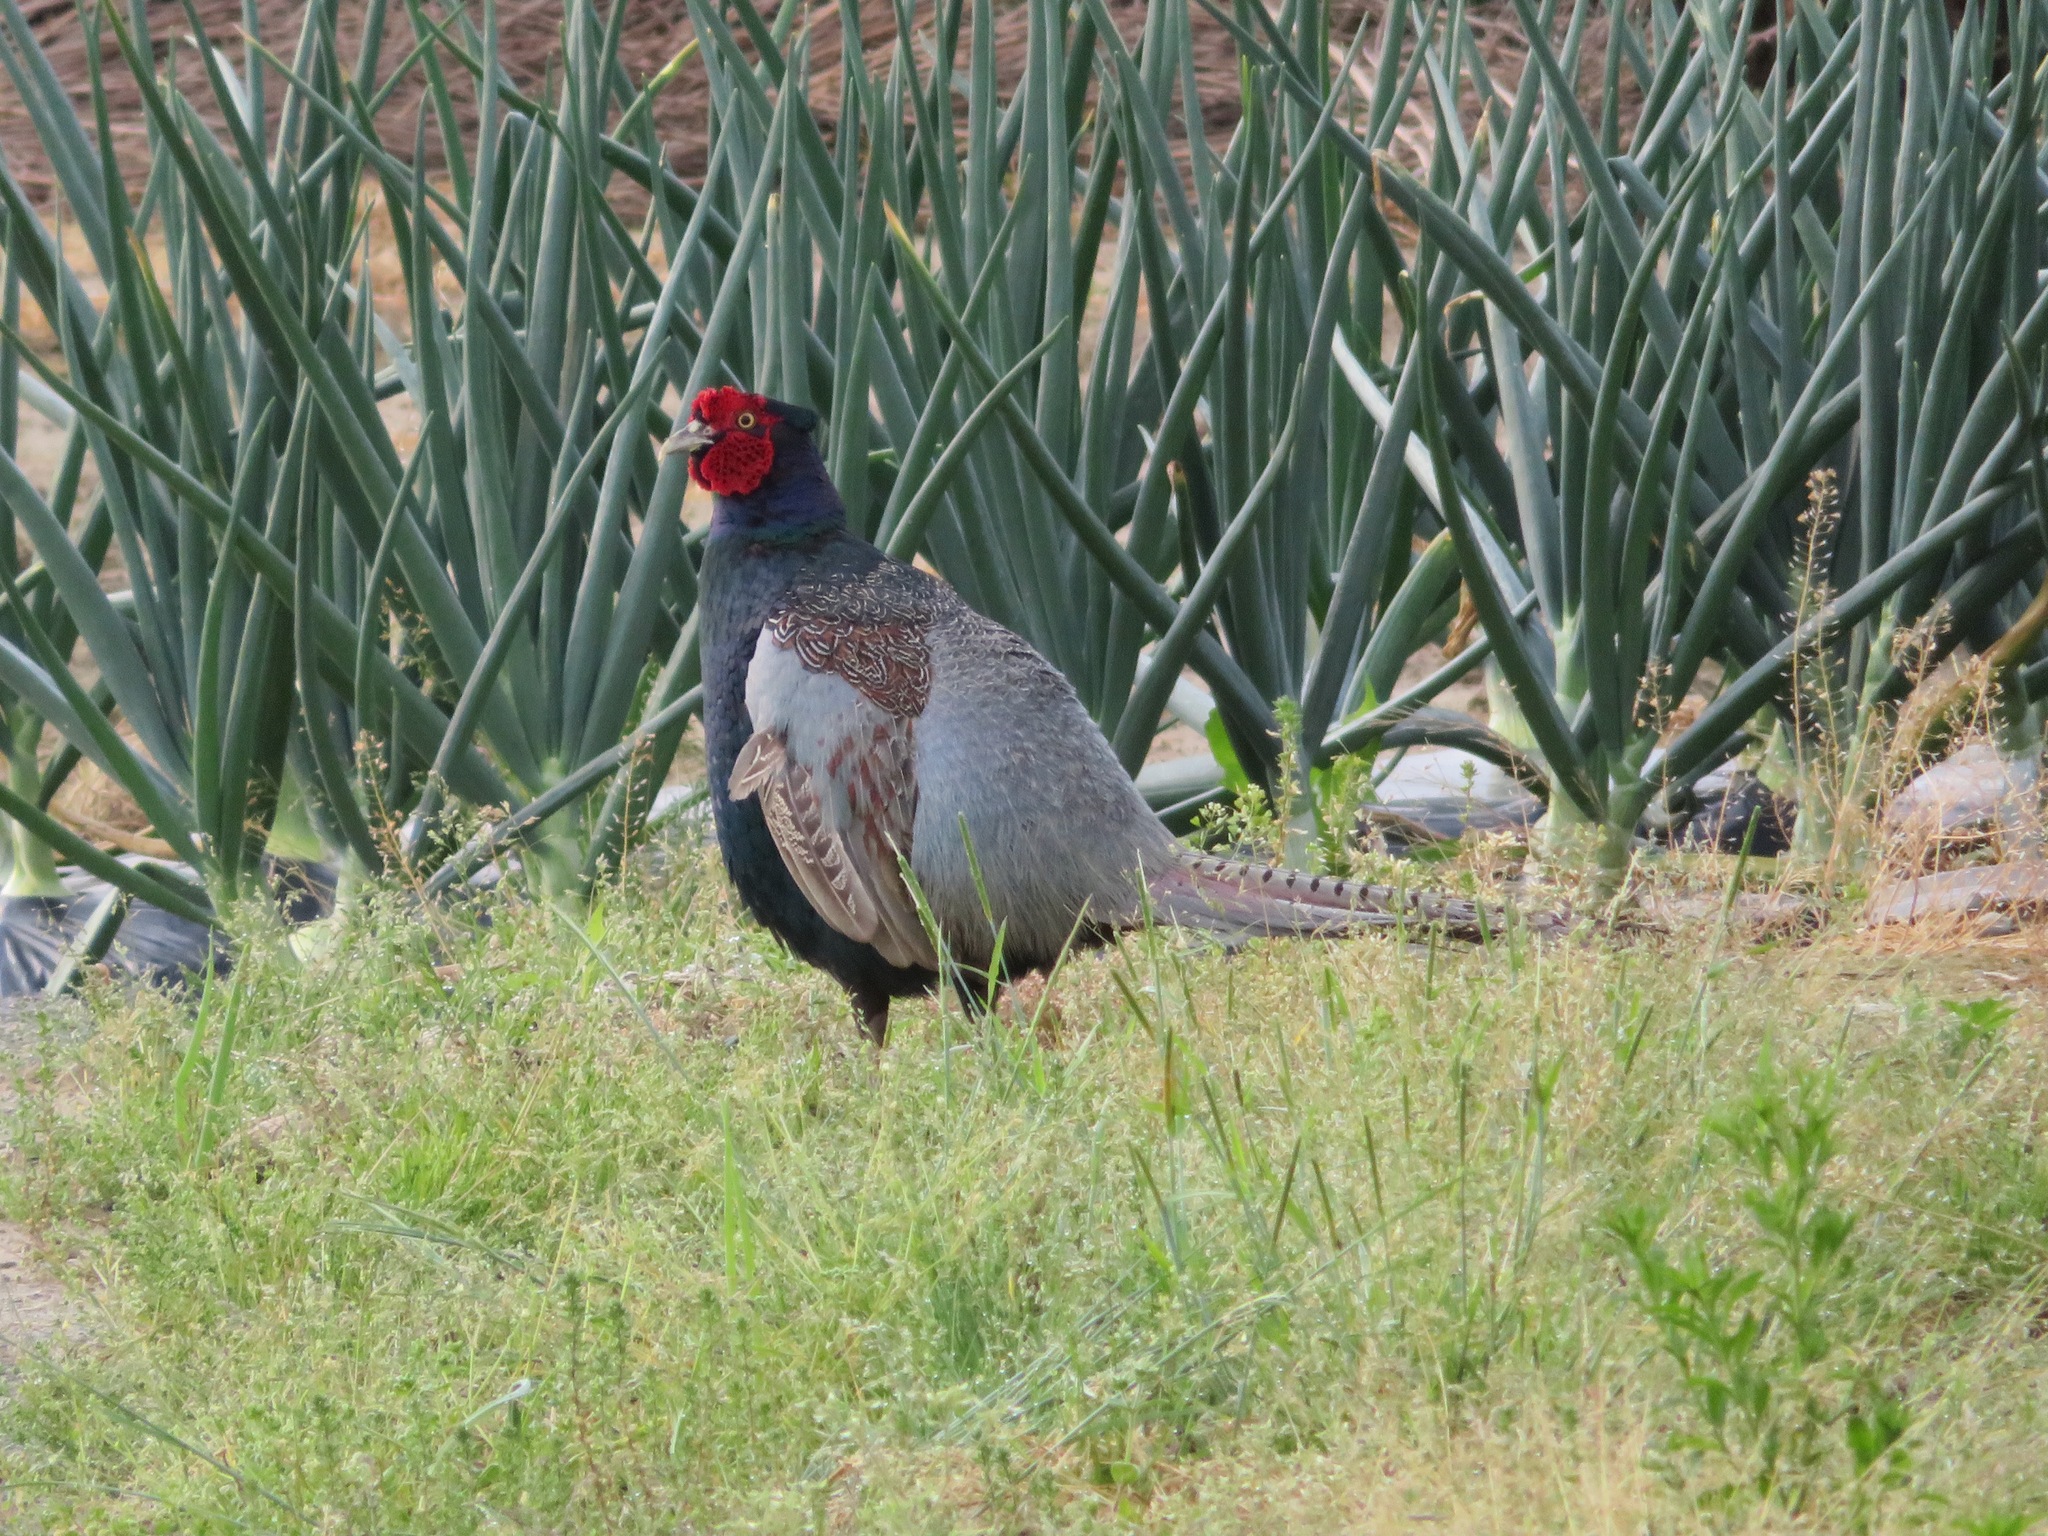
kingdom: Animalia
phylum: Chordata
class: Aves
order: Galliformes
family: Phasianidae
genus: Phasianus
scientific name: Phasianus versicolor
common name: Green pheasant
